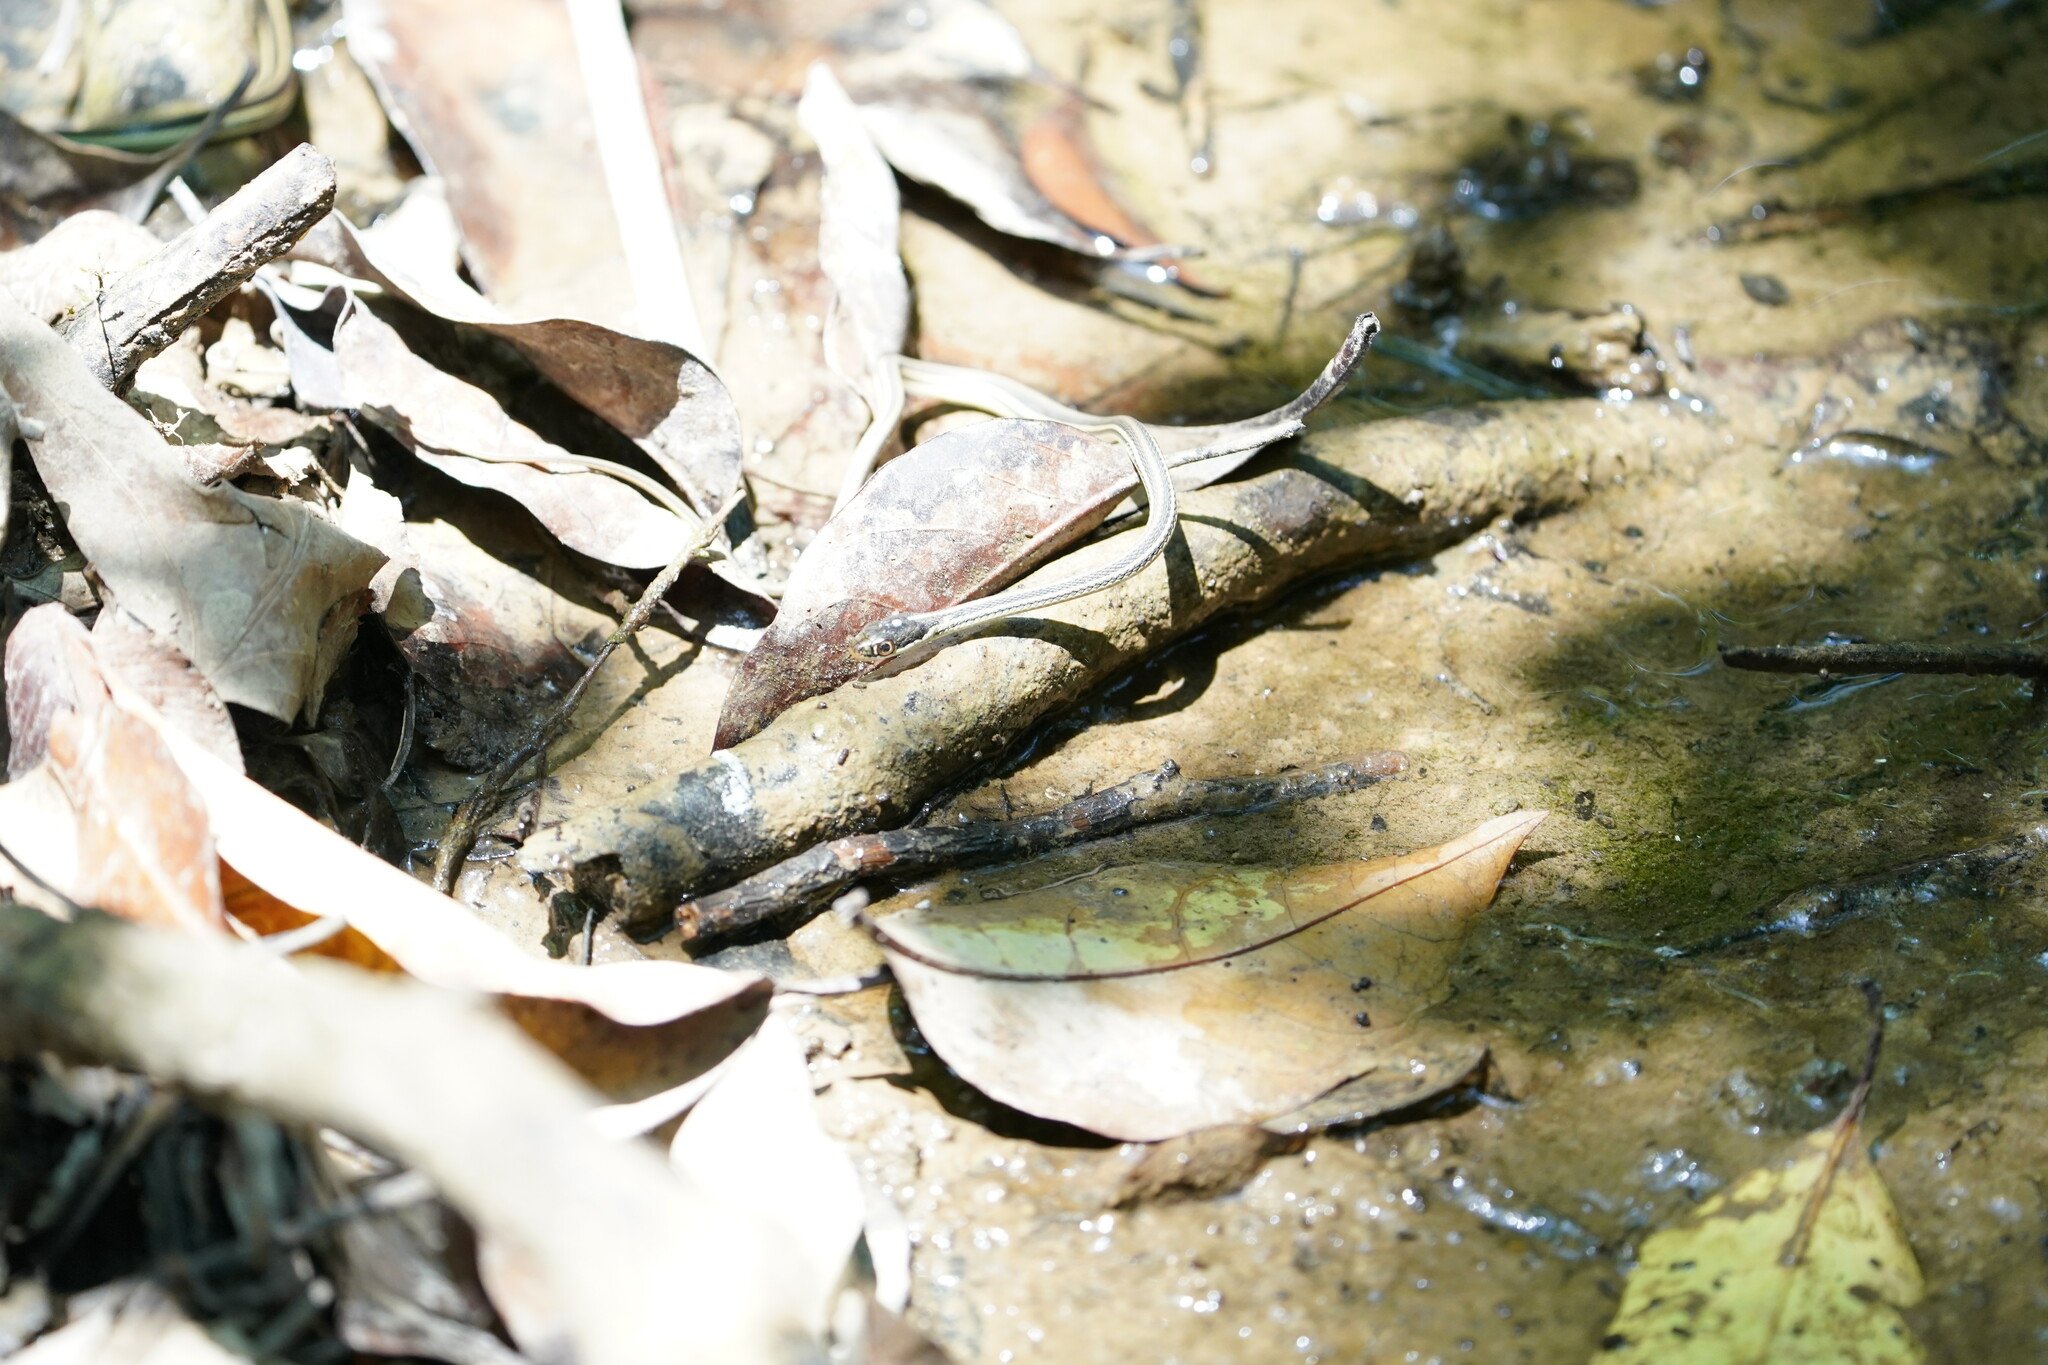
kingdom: Animalia
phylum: Chordata
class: Squamata
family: Colubridae
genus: Thamnophis
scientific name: Thamnophis proximus
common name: Western ribbon snake
